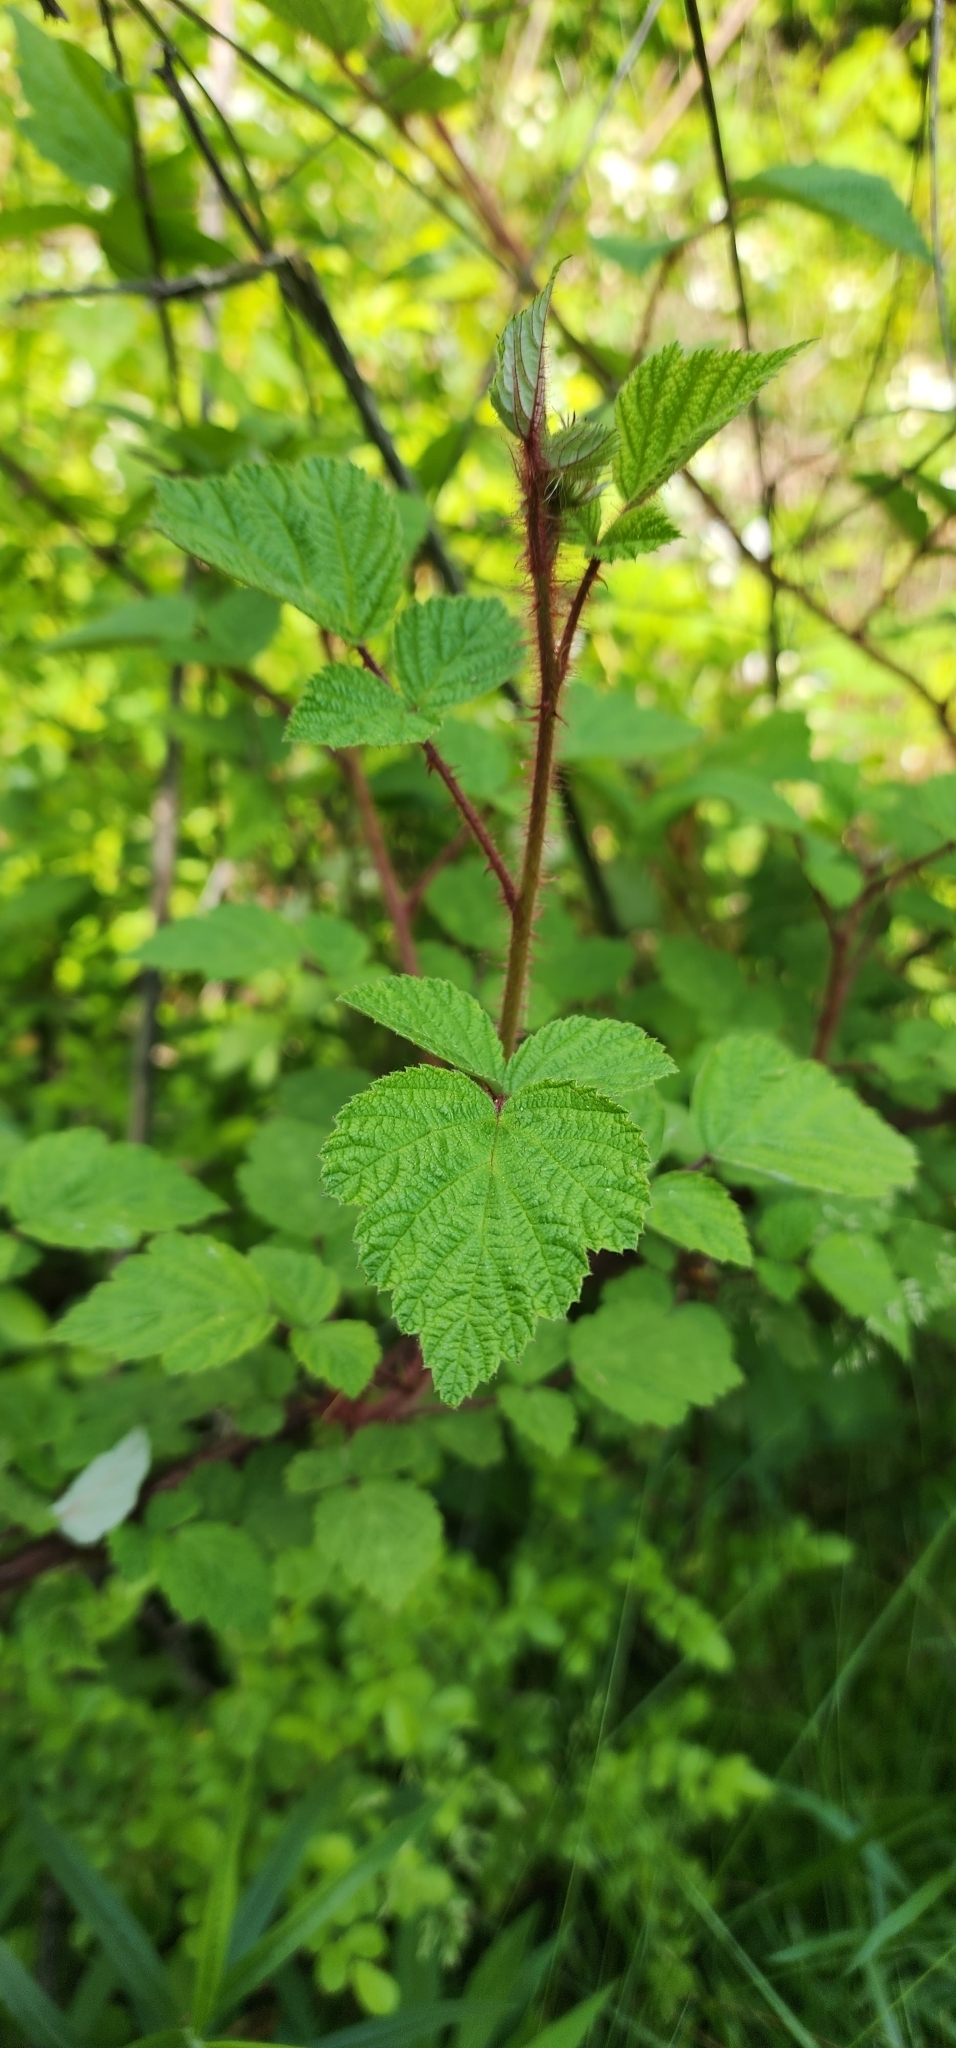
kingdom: Plantae
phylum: Tracheophyta
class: Magnoliopsida
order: Rosales
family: Rosaceae
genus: Rubus
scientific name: Rubus phoenicolasius
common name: Japanese wineberry
